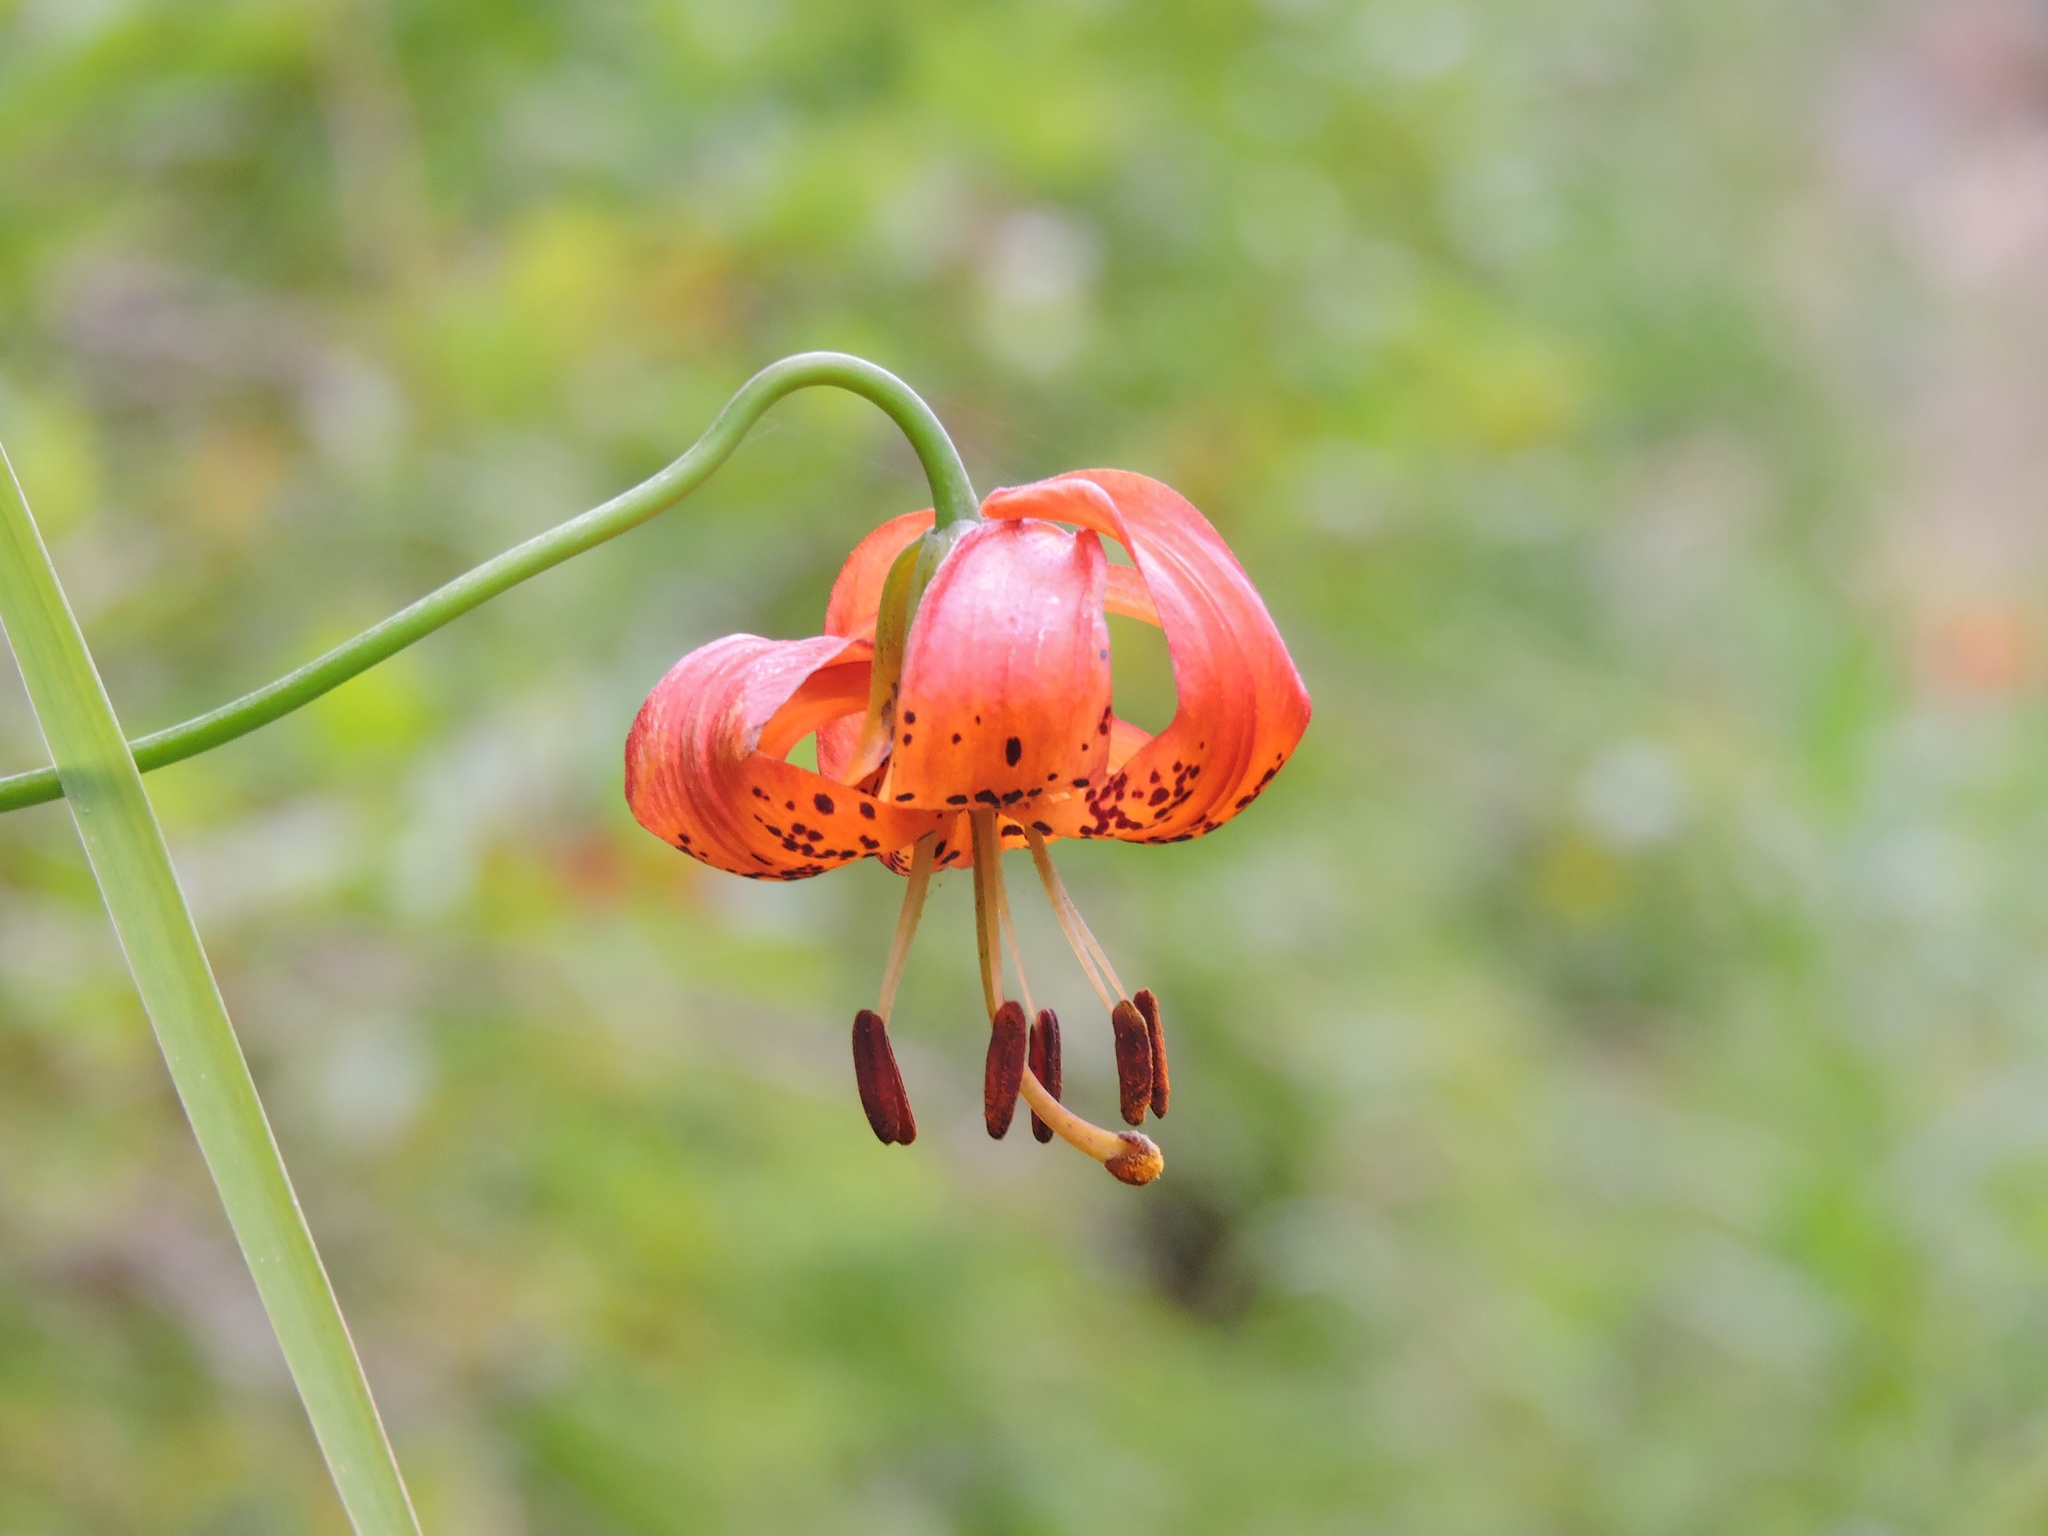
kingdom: Plantae
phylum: Tracheophyta
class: Liliopsida
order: Liliales
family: Liliaceae
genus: Lilium
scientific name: Lilium pardalinum
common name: Panther lily
